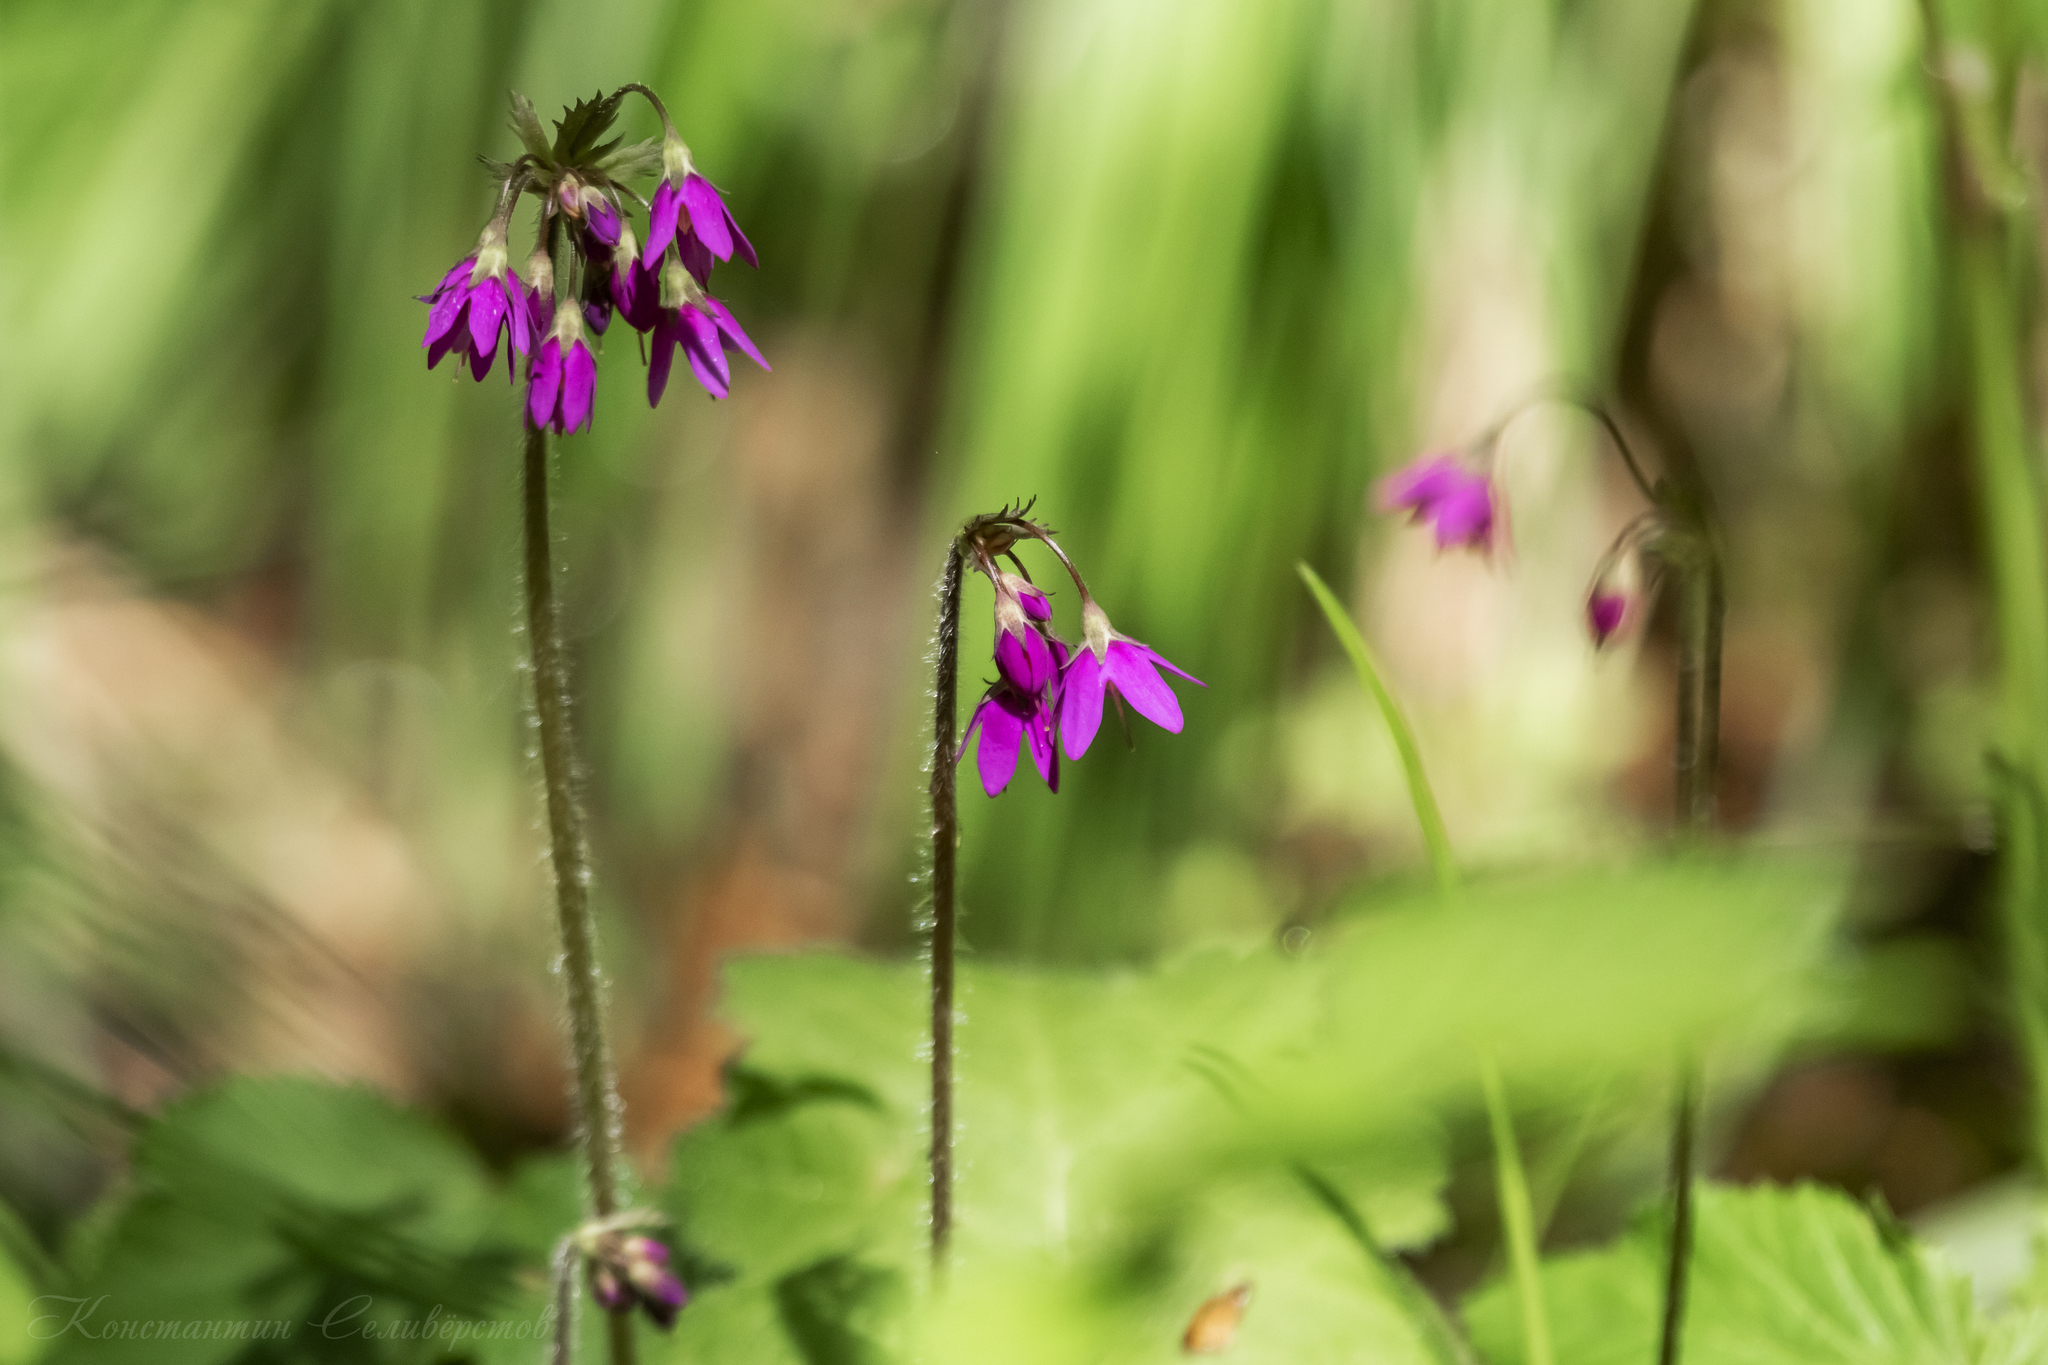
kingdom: Plantae
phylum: Tracheophyta
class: Magnoliopsida
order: Ericales
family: Primulaceae
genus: Primula
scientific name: Primula matthioli
